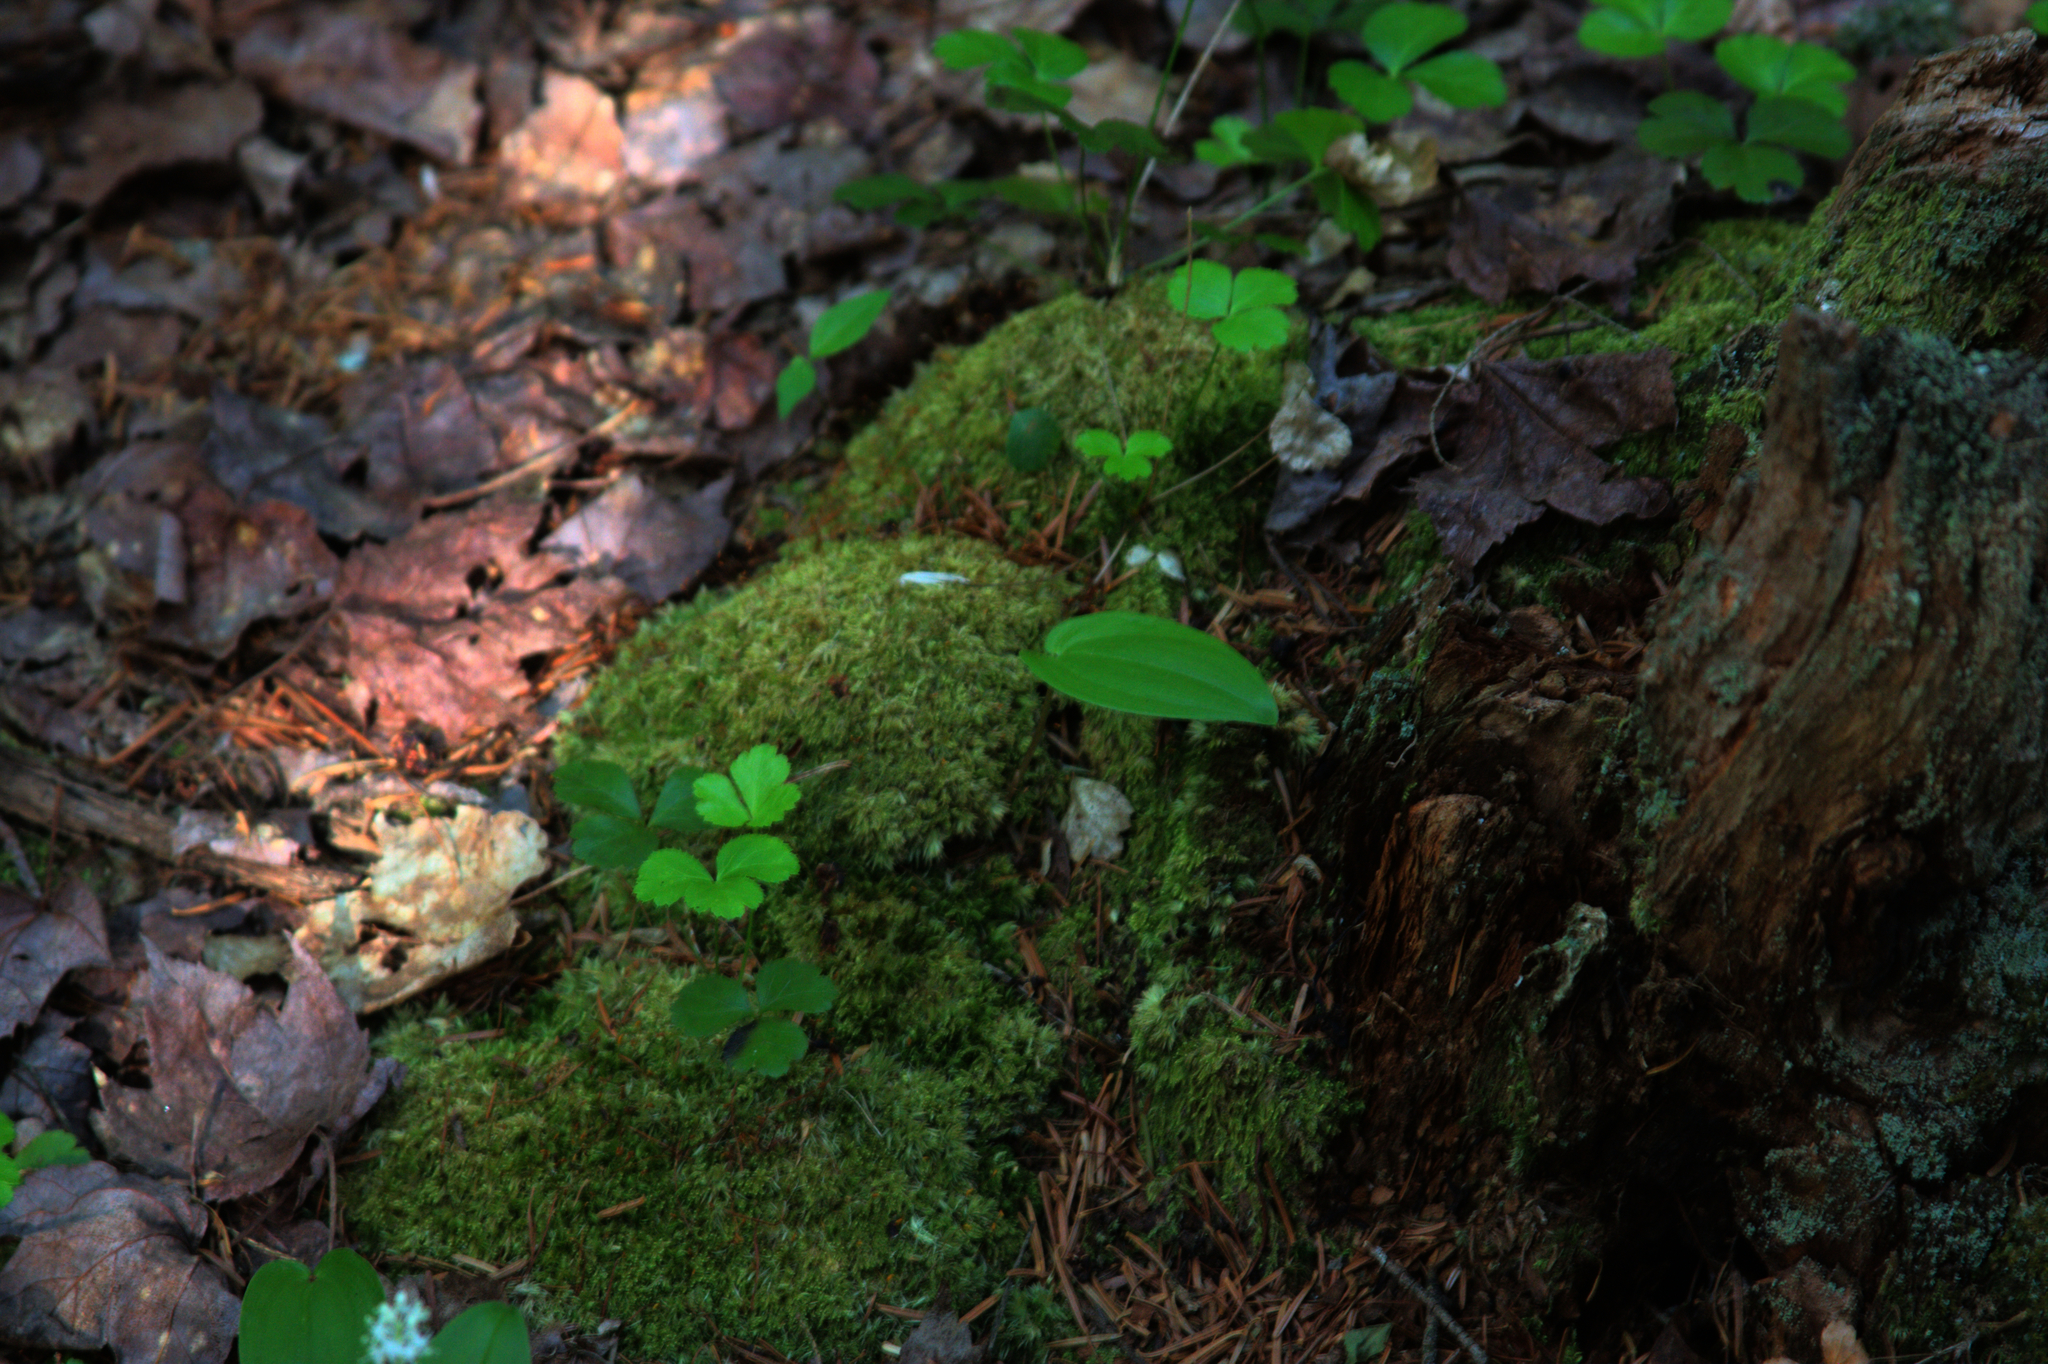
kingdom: Plantae
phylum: Tracheophyta
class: Magnoliopsida
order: Ranunculales
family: Ranunculaceae
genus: Coptis
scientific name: Coptis trifolia
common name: Canker-root
